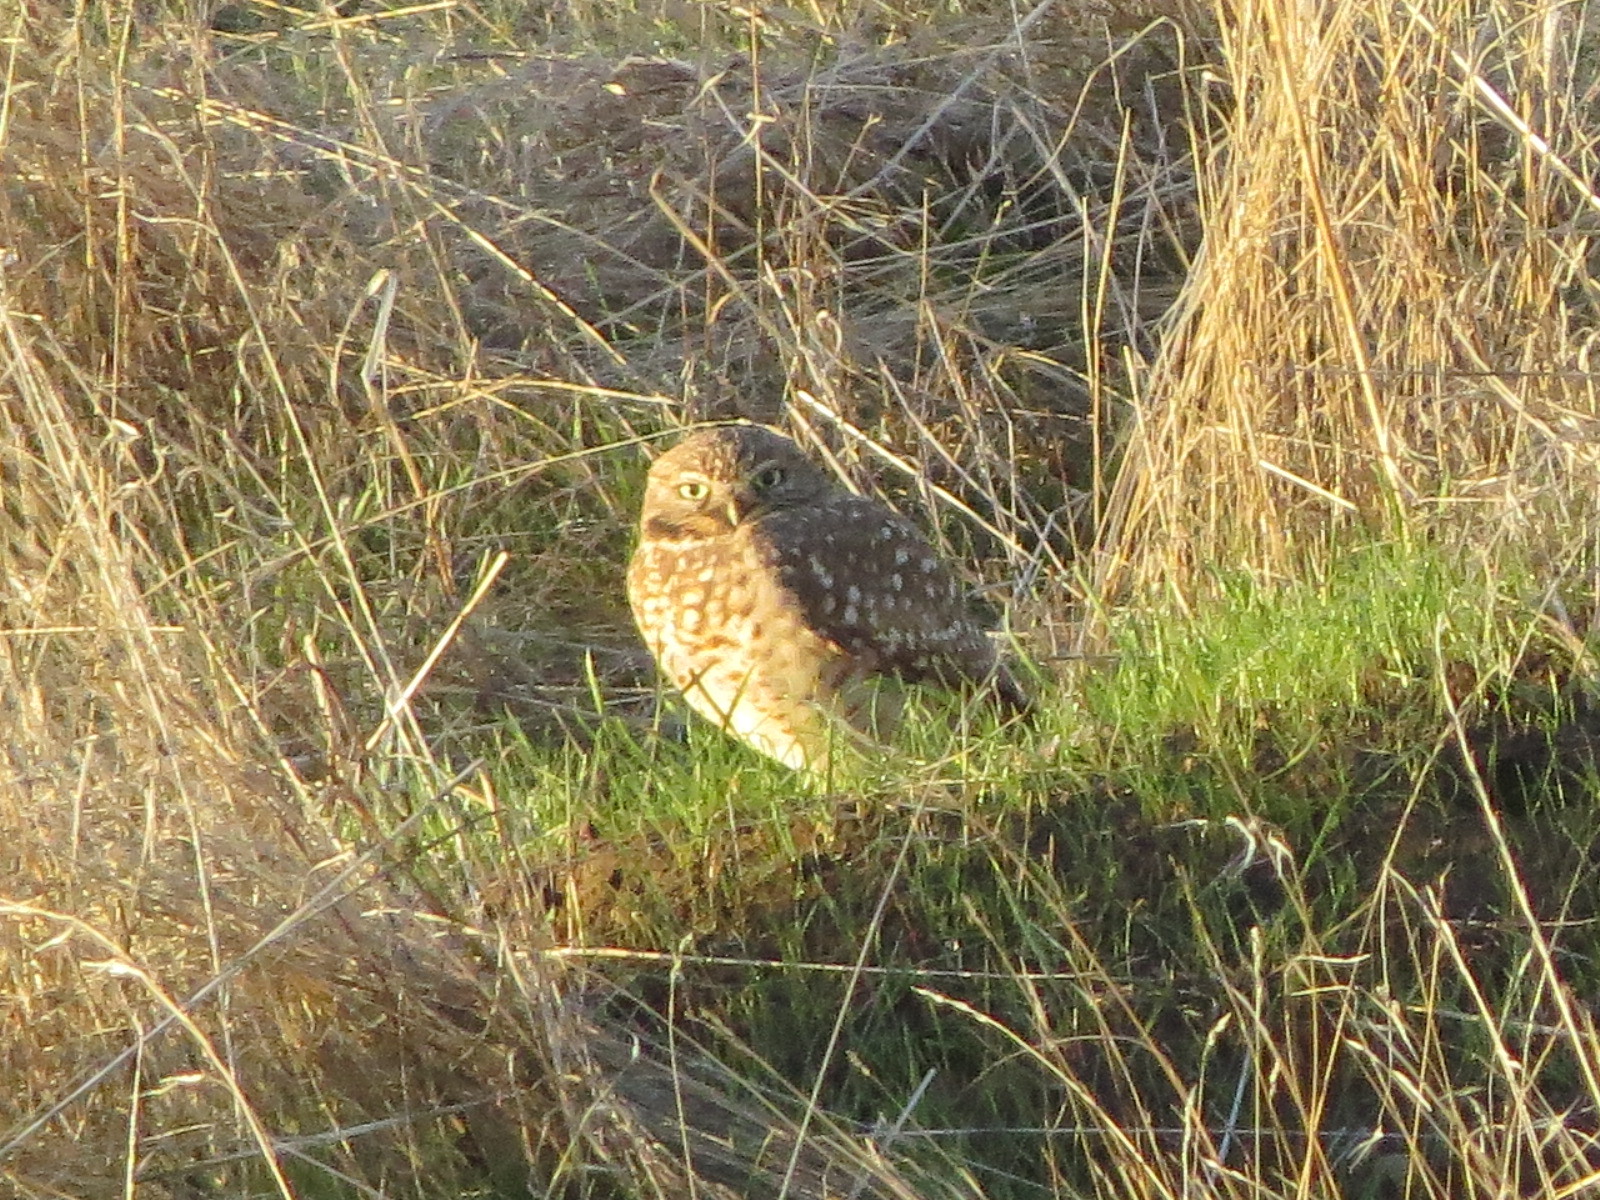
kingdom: Animalia
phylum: Chordata
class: Aves
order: Strigiformes
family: Strigidae
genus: Athene
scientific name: Athene cunicularia
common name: Burrowing owl
